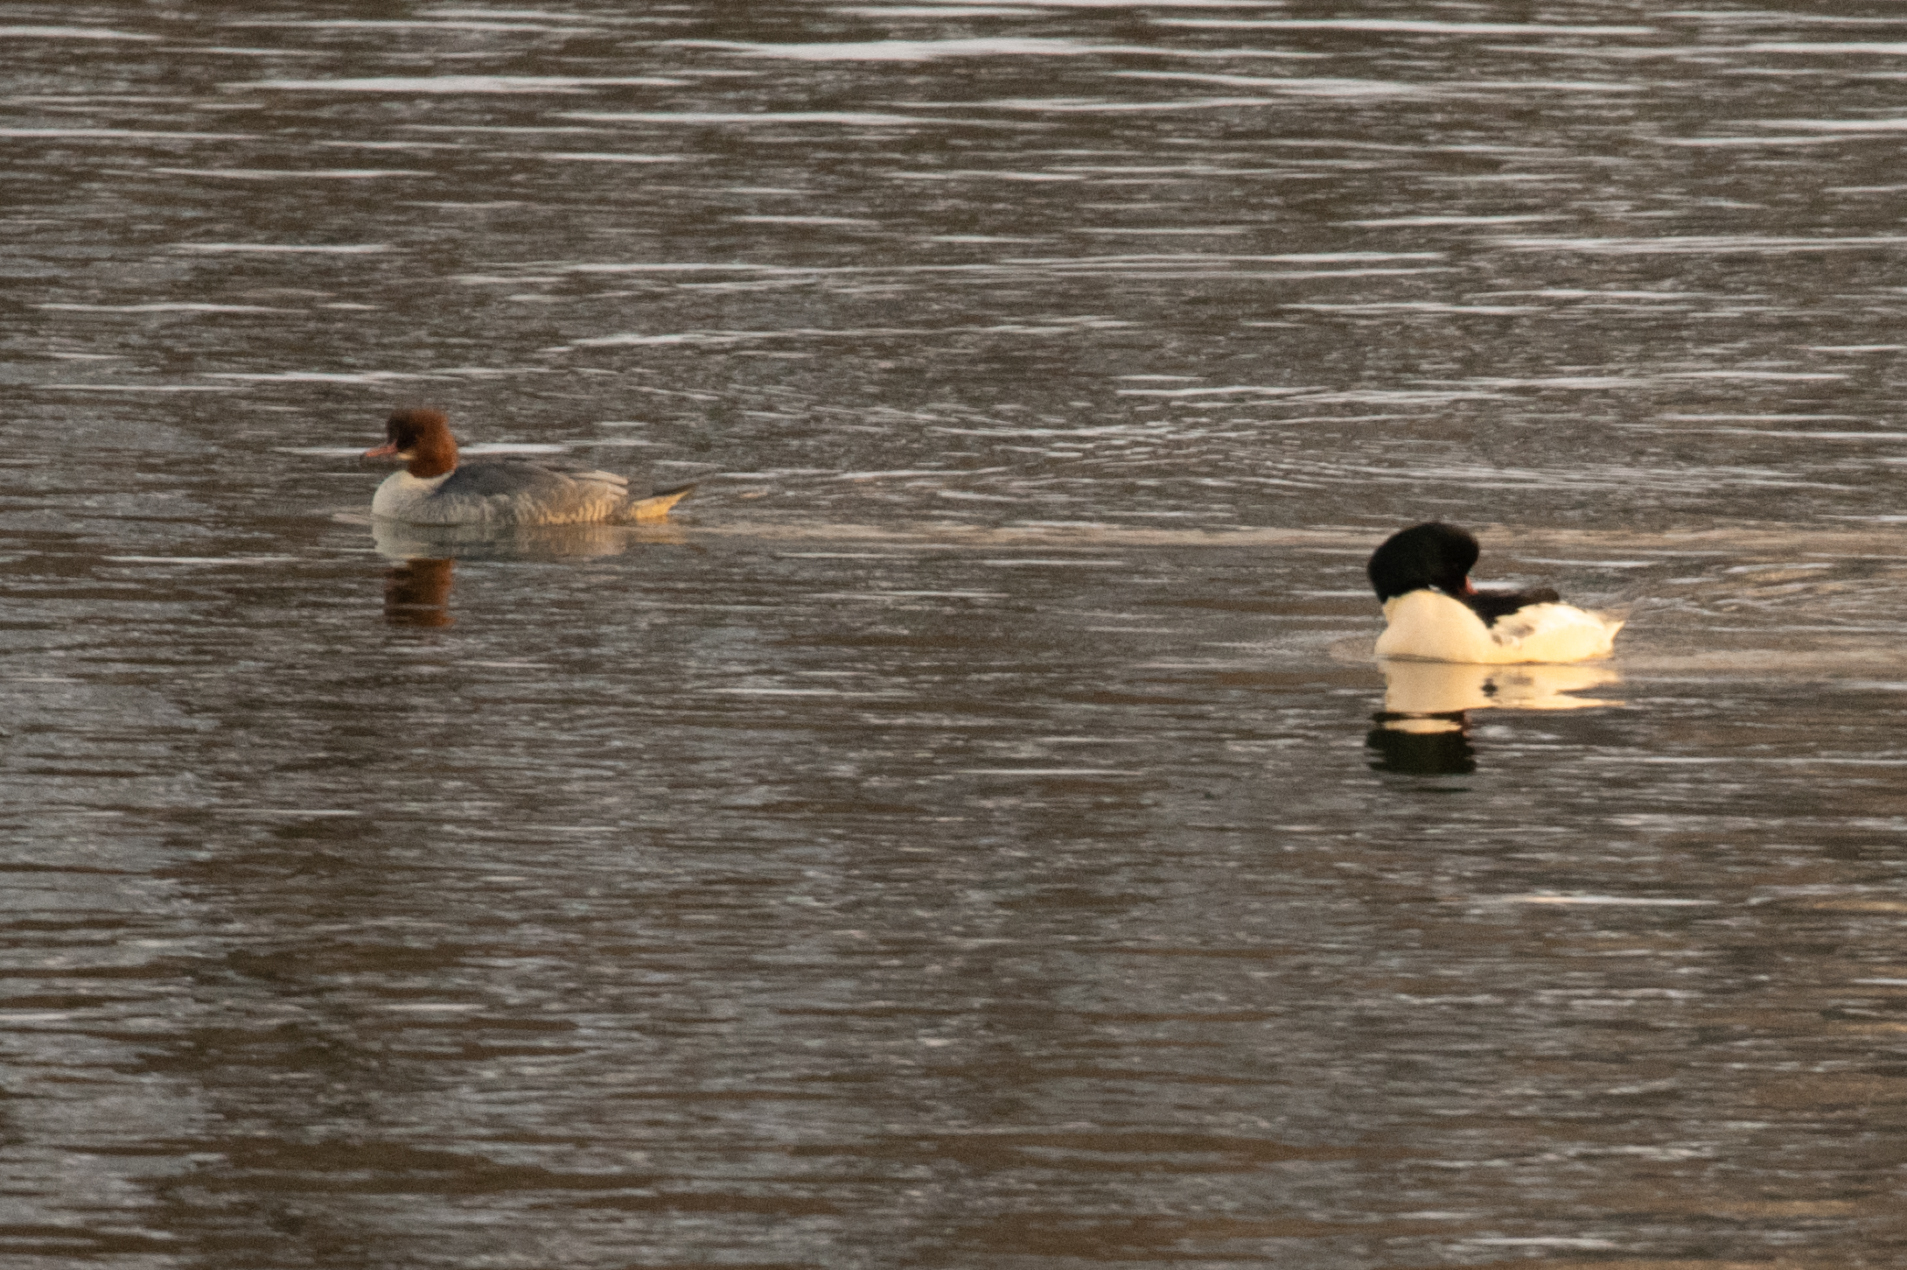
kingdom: Animalia
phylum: Chordata
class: Aves
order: Anseriformes
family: Anatidae
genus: Mergus
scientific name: Mergus merganser
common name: Common merganser
